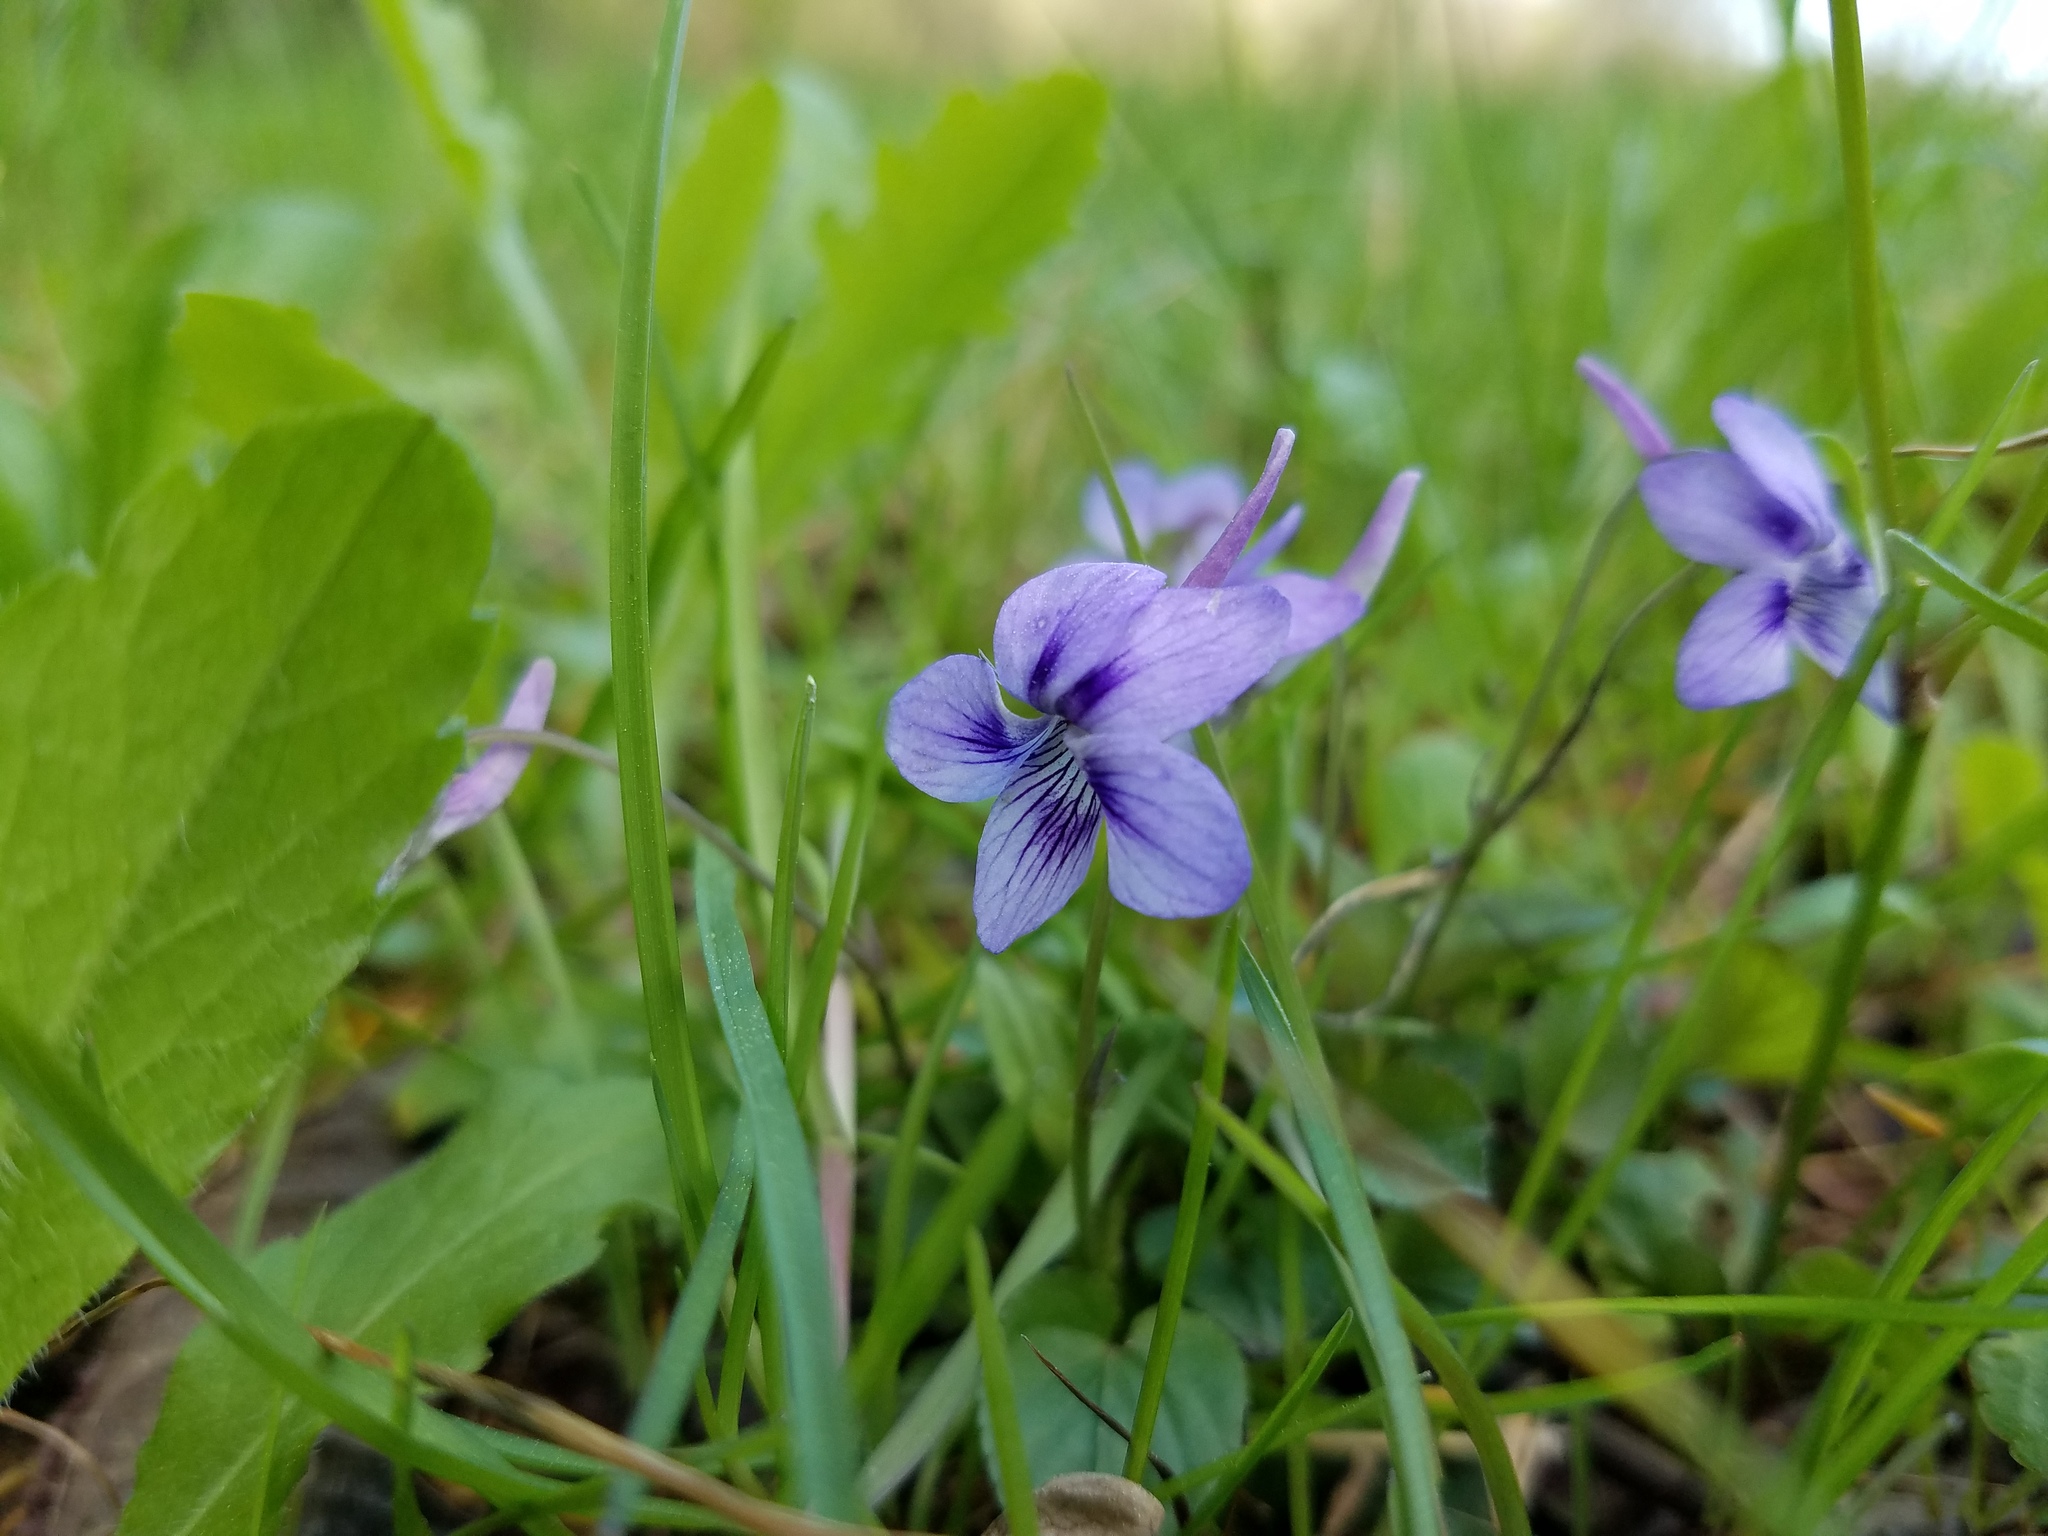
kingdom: Plantae
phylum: Tracheophyta
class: Magnoliopsida
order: Malpighiales
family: Violaceae
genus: Viola
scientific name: Viola rostrata
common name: Long-spur violet
